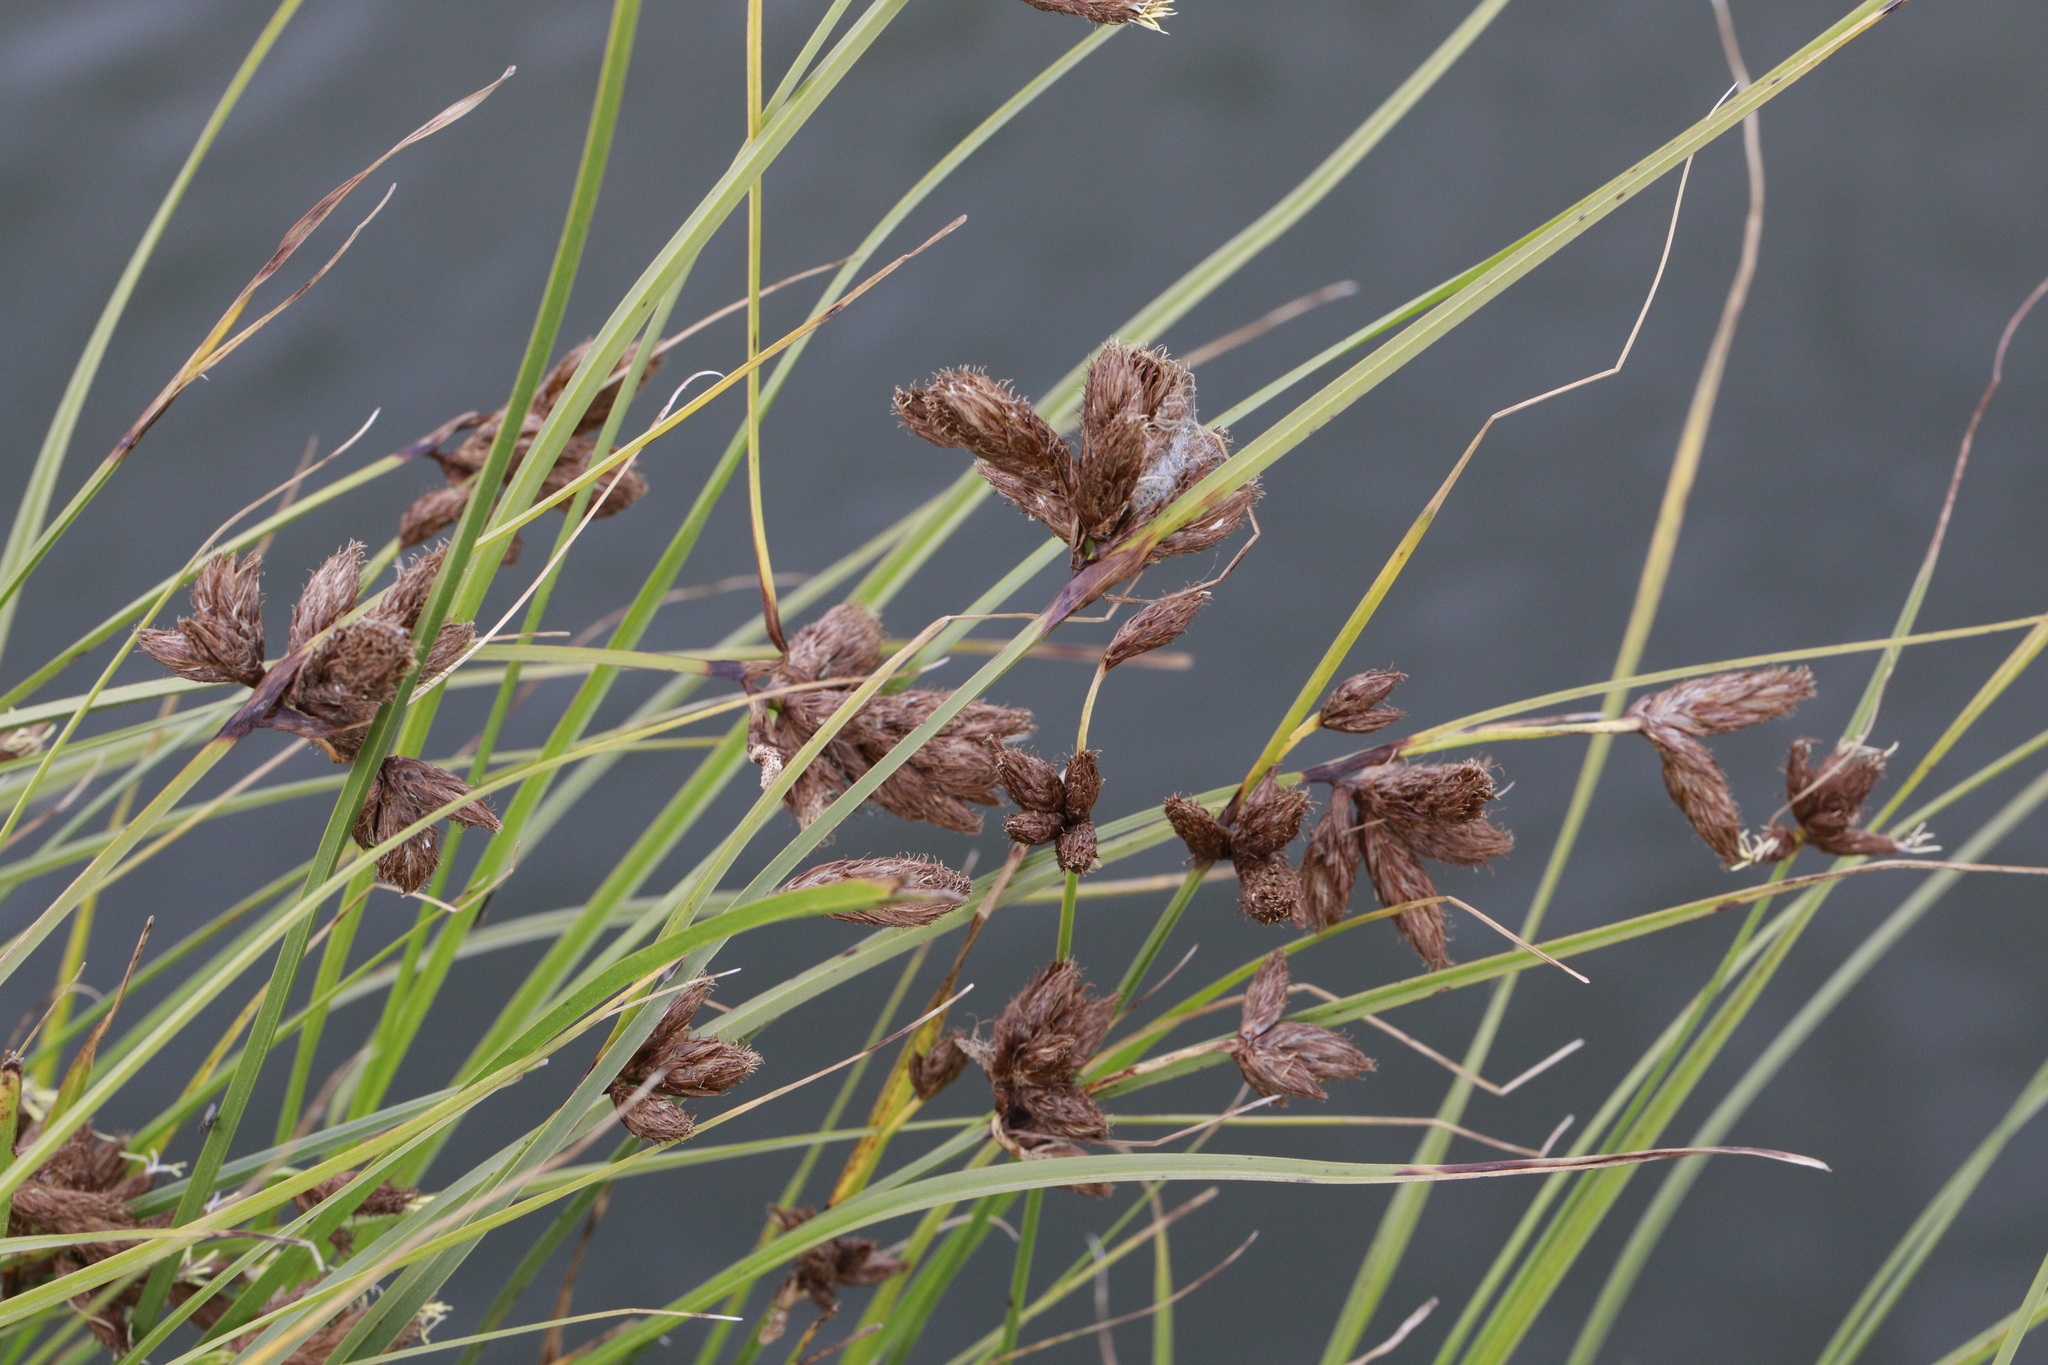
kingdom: Plantae
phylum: Tracheophyta
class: Liliopsida
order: Poales
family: Cyperaceae
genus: Bolboschoenus
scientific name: Bolboschoenus maritimus
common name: Sea club-rush
